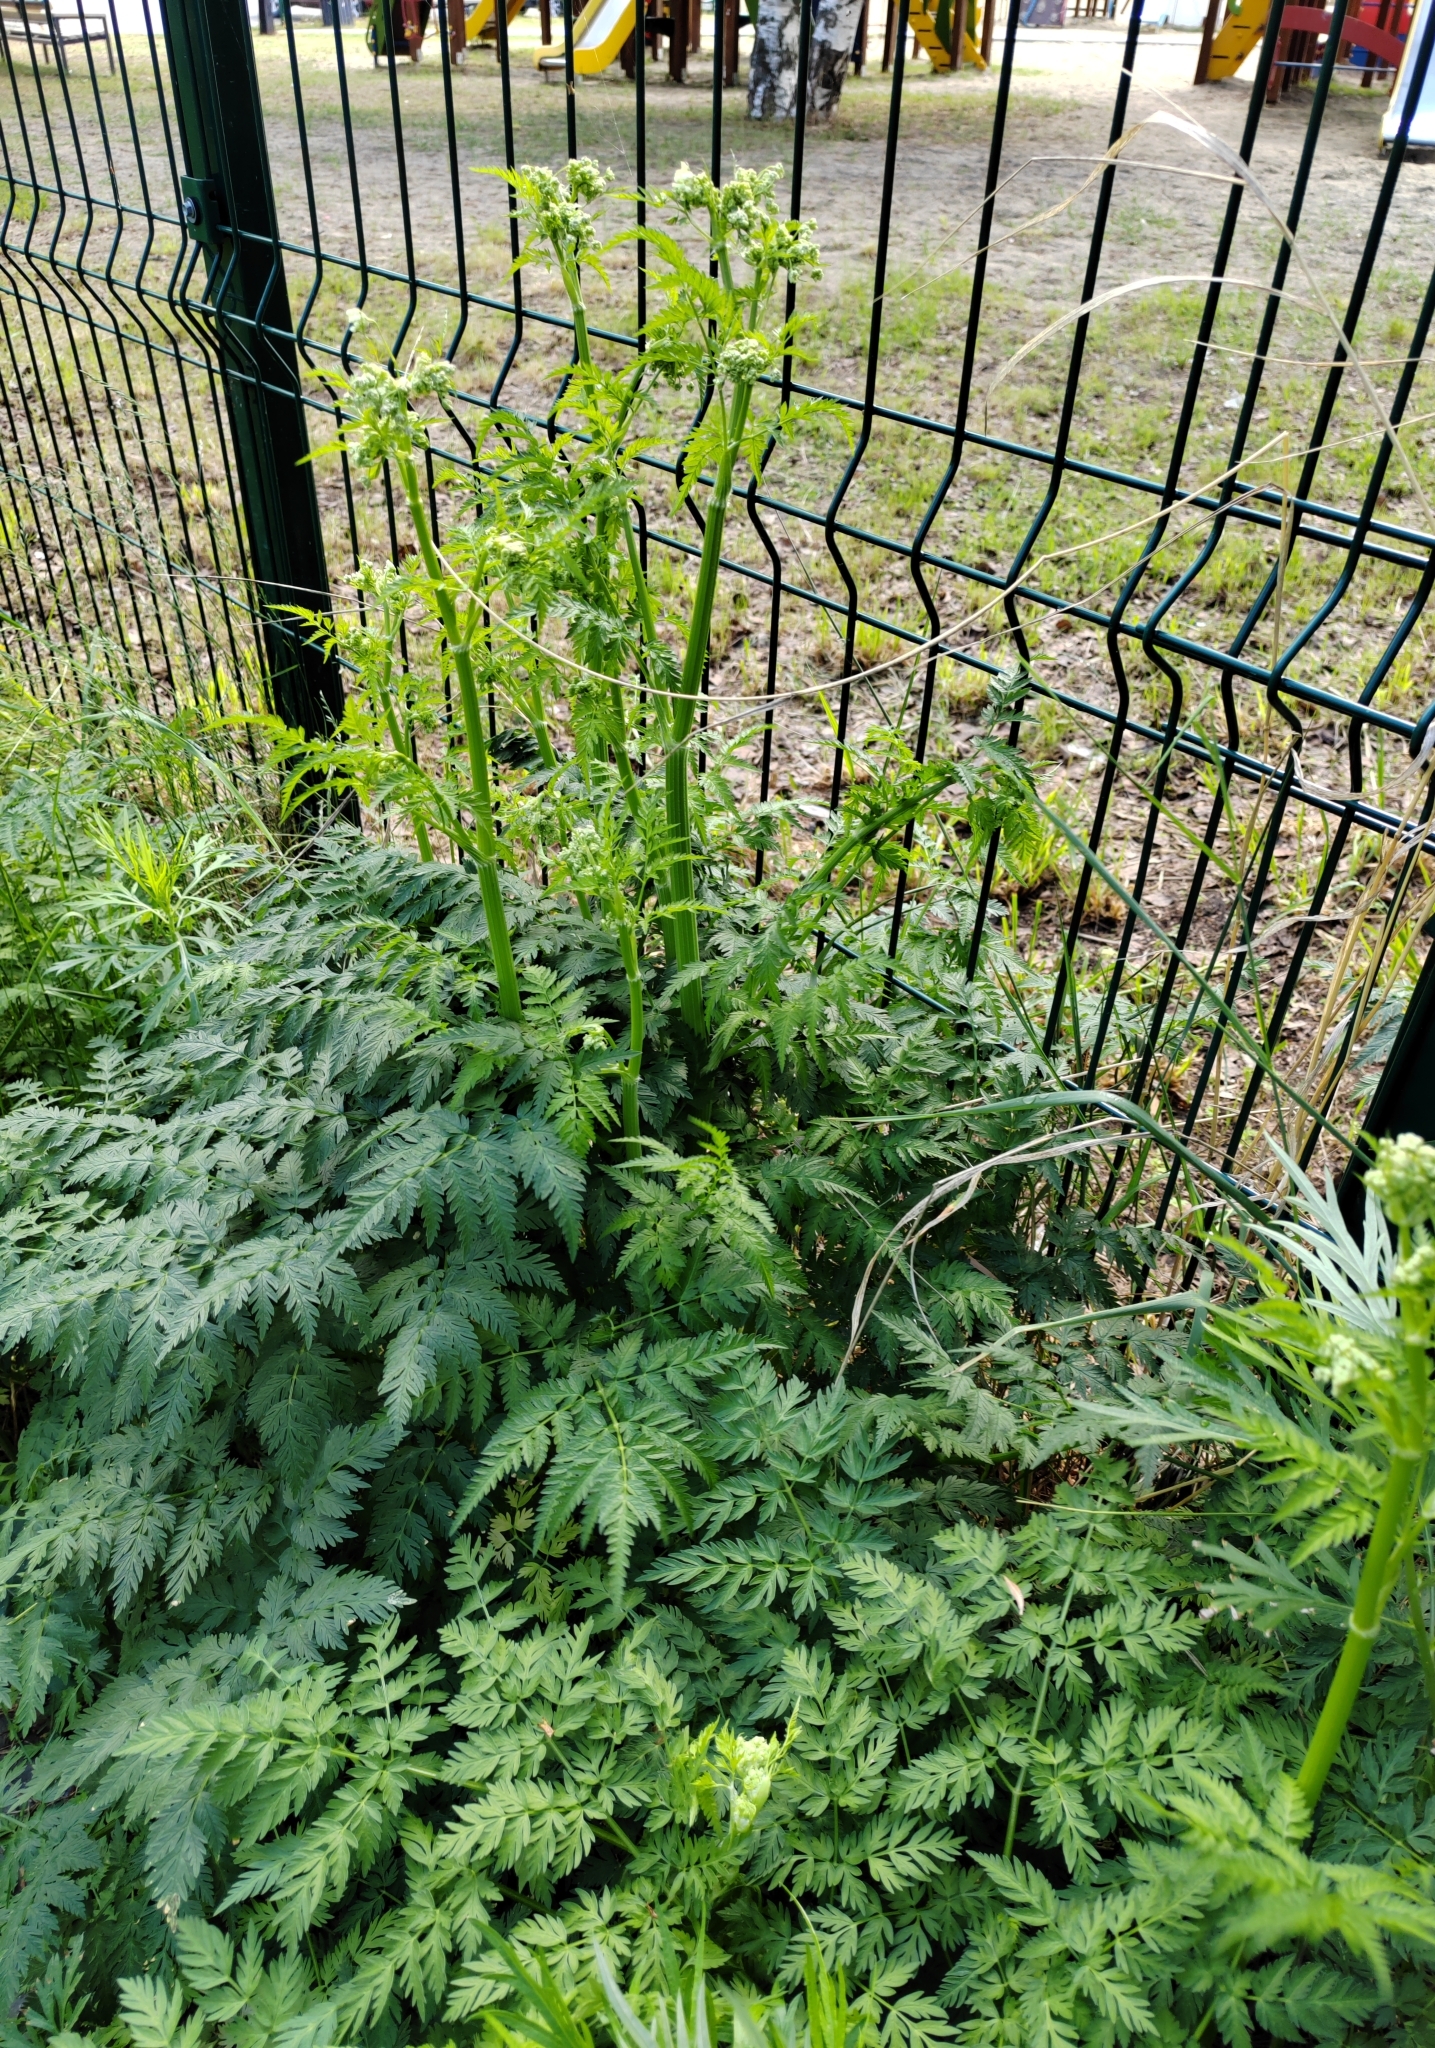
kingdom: Plantae
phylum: Tracheophyta
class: Magnoliopsida
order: Apiales
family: Apiaceae
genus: Anthriscus
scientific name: Anthriscus sylvestris
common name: Cow parsley
